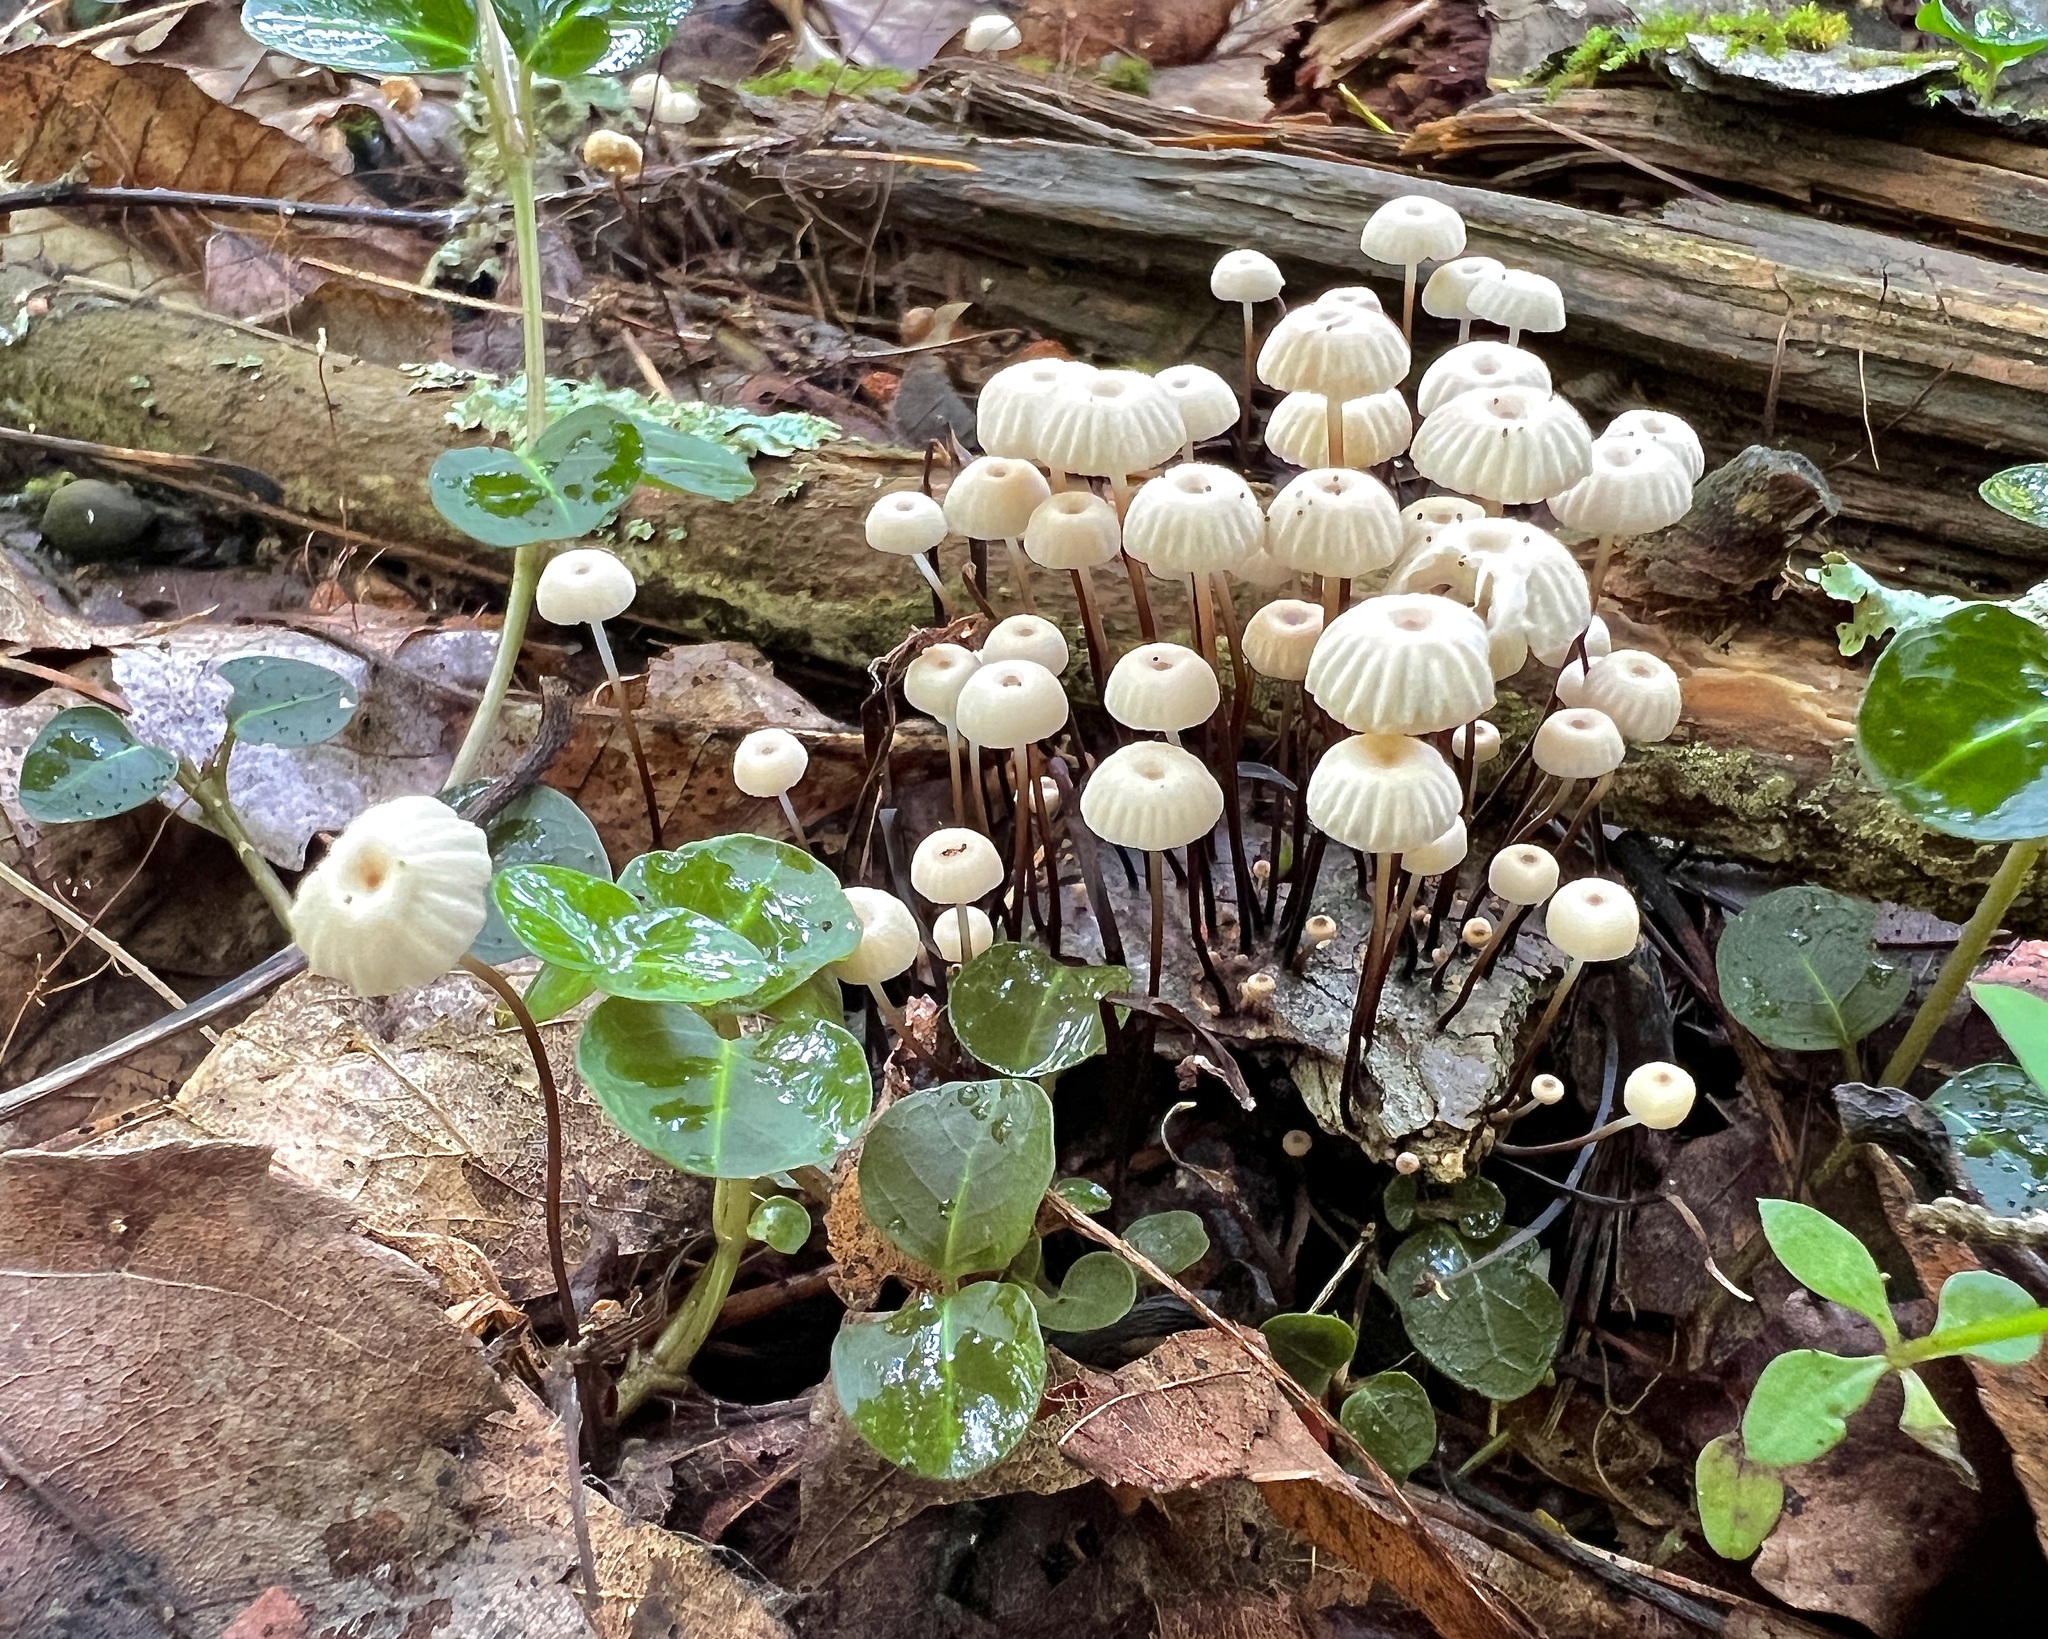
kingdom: Fungi
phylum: Basidiomycota
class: Agaricomycetes
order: Agaricales
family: Marasmiaceae
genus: Marasmius
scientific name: Marasmius rotula
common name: Collared parachute
